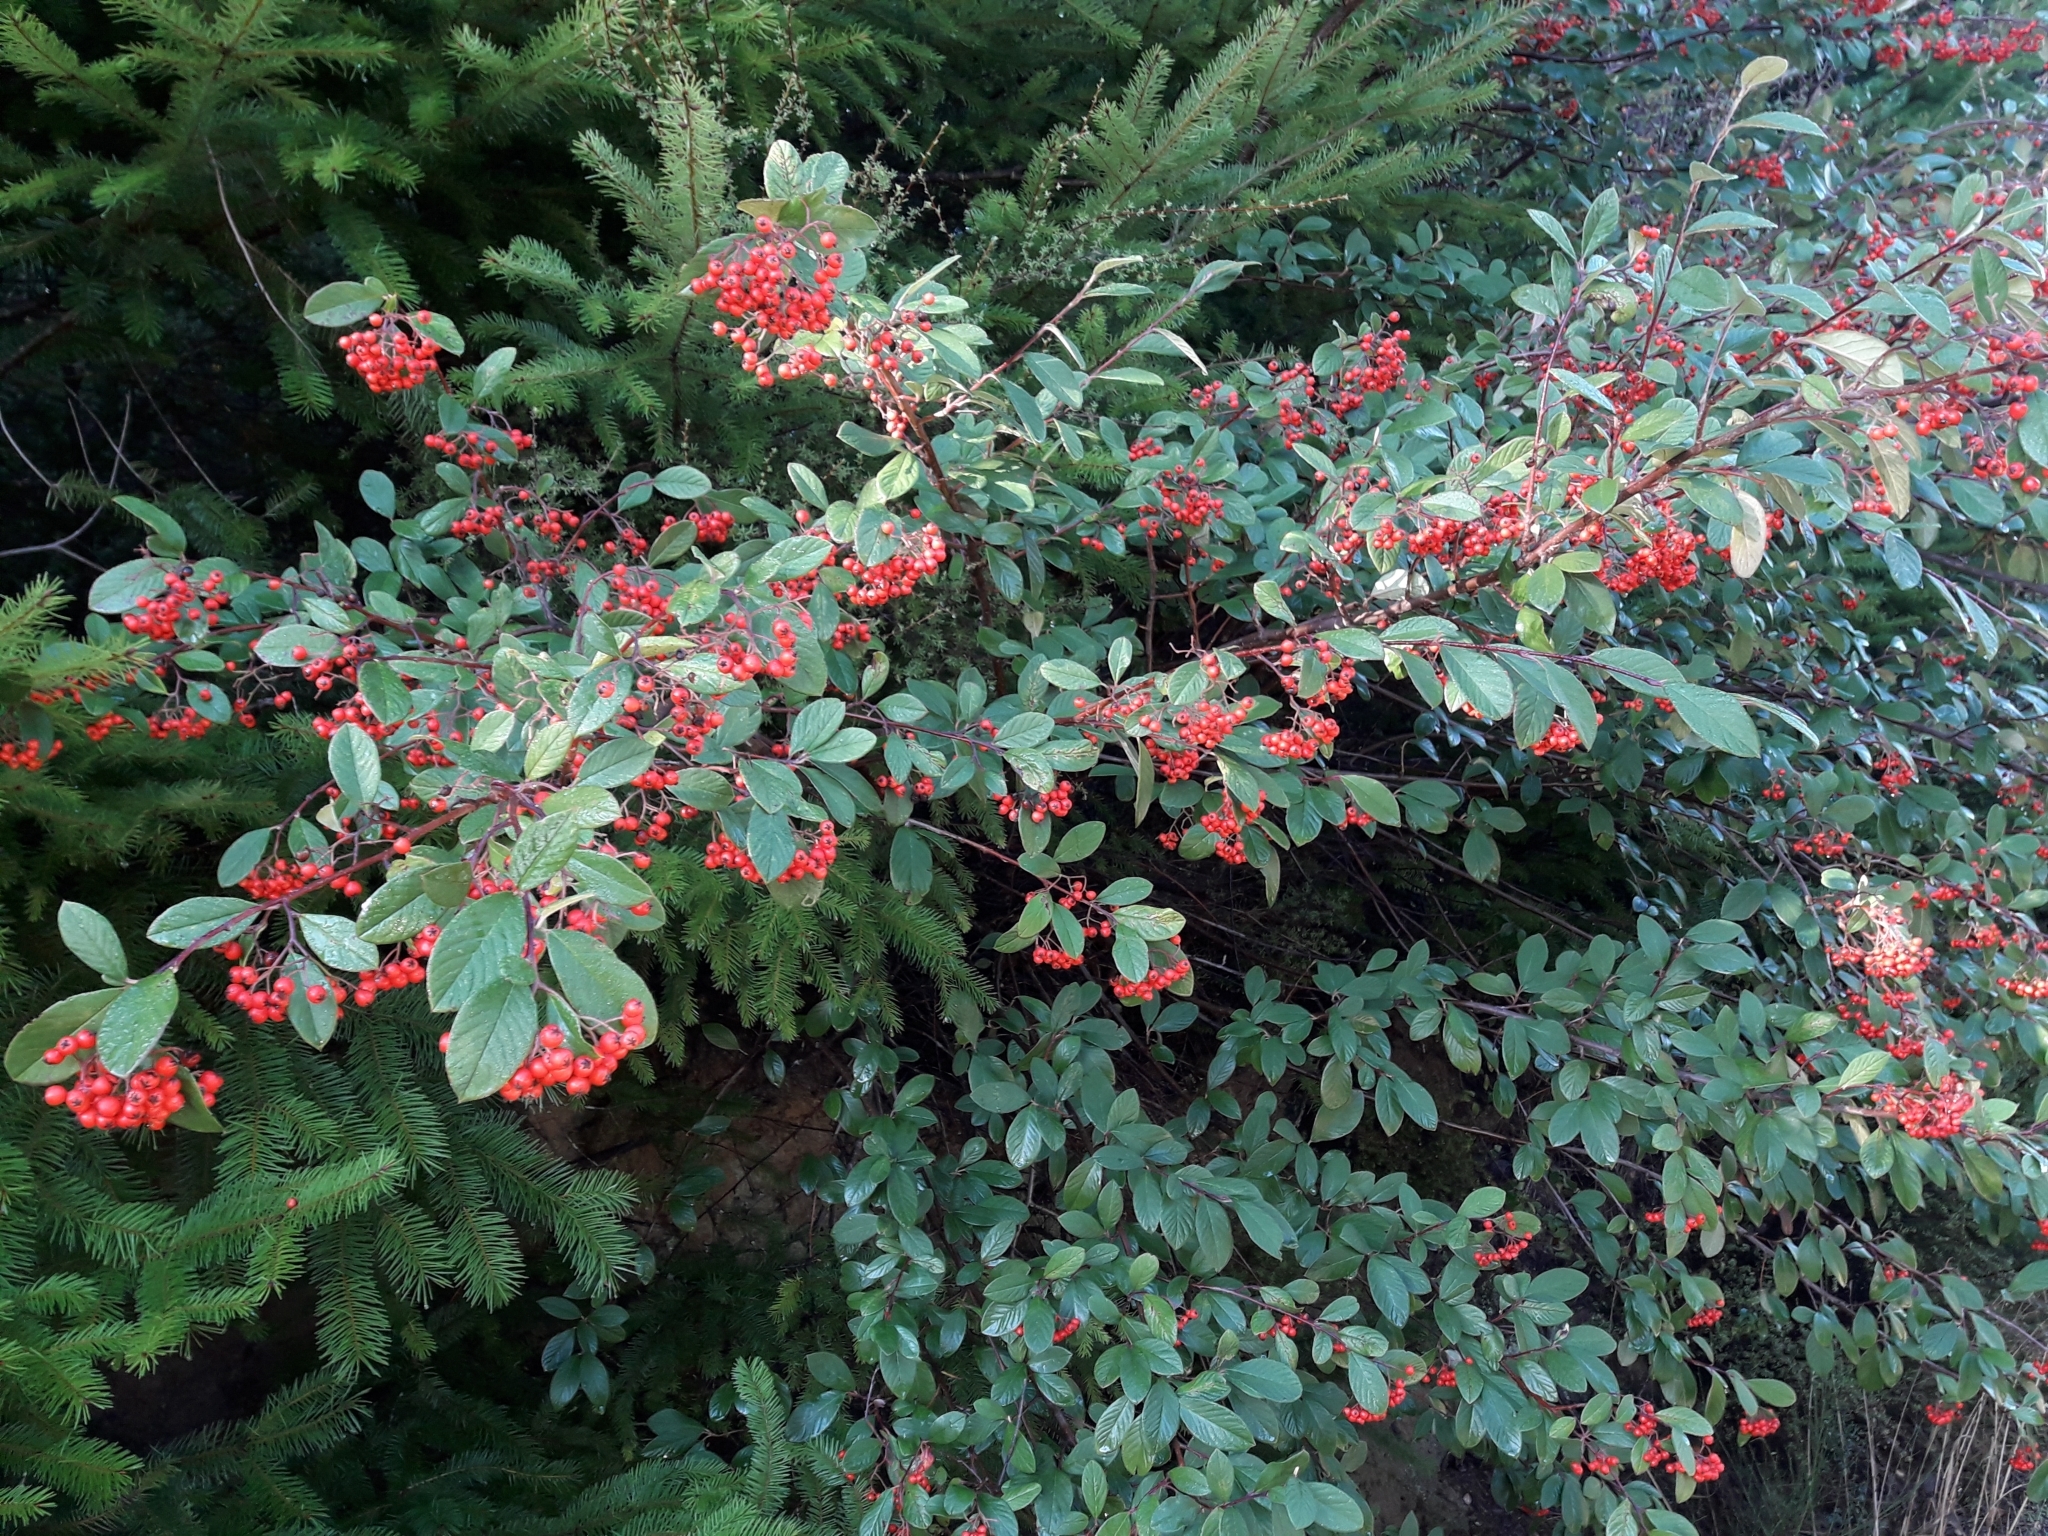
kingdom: Plantae
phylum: Tracheophyta
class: Magnoliopsida
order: Rosales
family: Rosaceae
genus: Cotoneaster
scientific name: Cotoneaster glaucophyllus
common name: Glaucous cotoneaster
